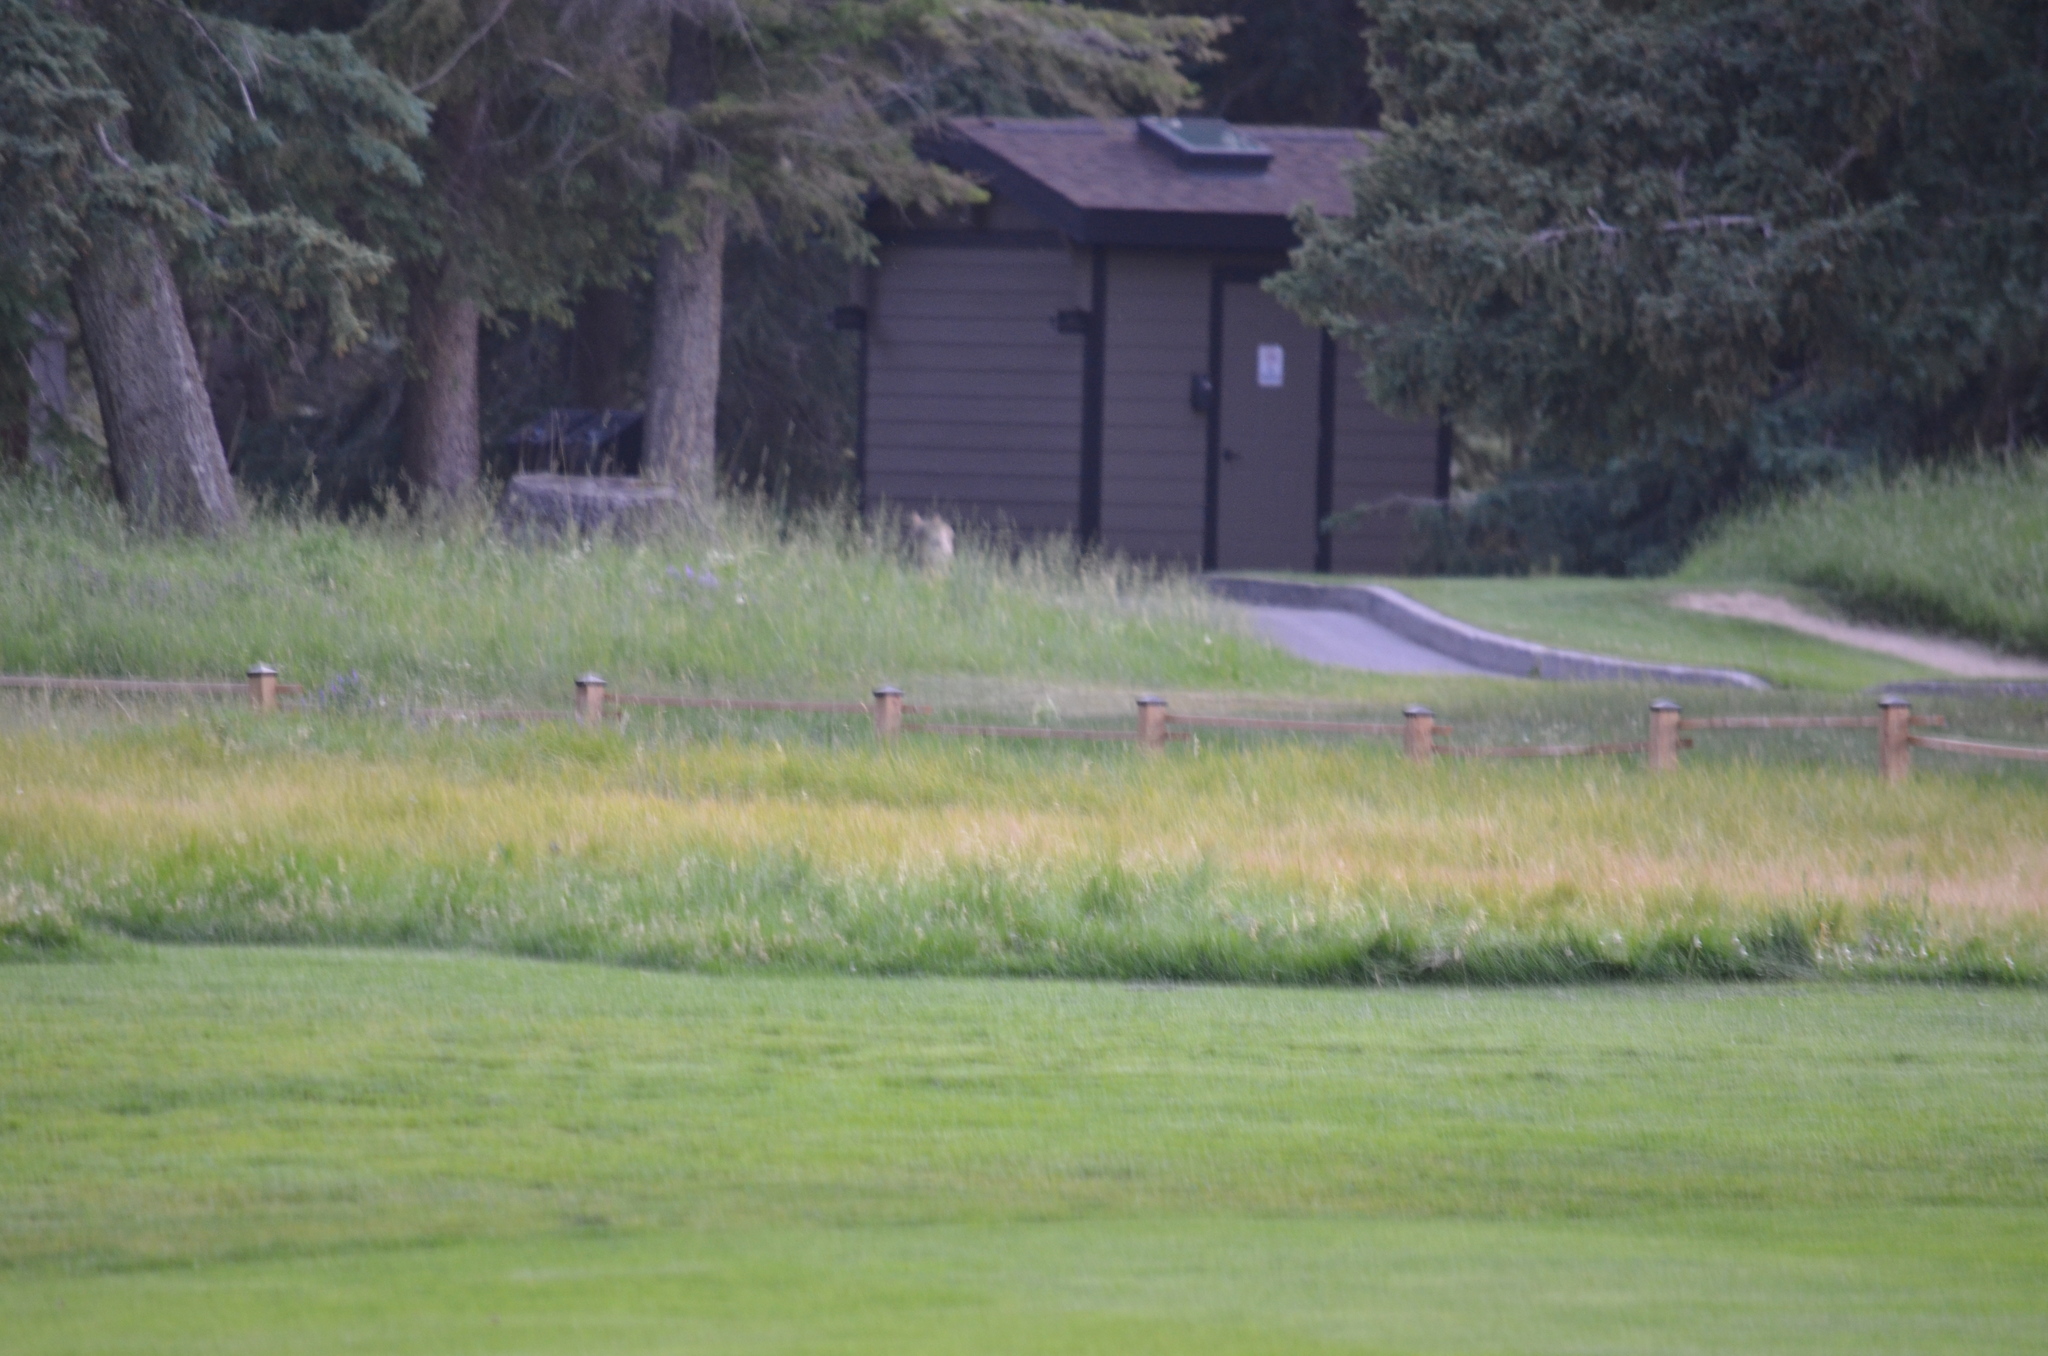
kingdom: Animalia
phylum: Chordata
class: Mammalia
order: Carnivora
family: Canidae
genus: Canis
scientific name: Canis latrans
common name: Coyote
